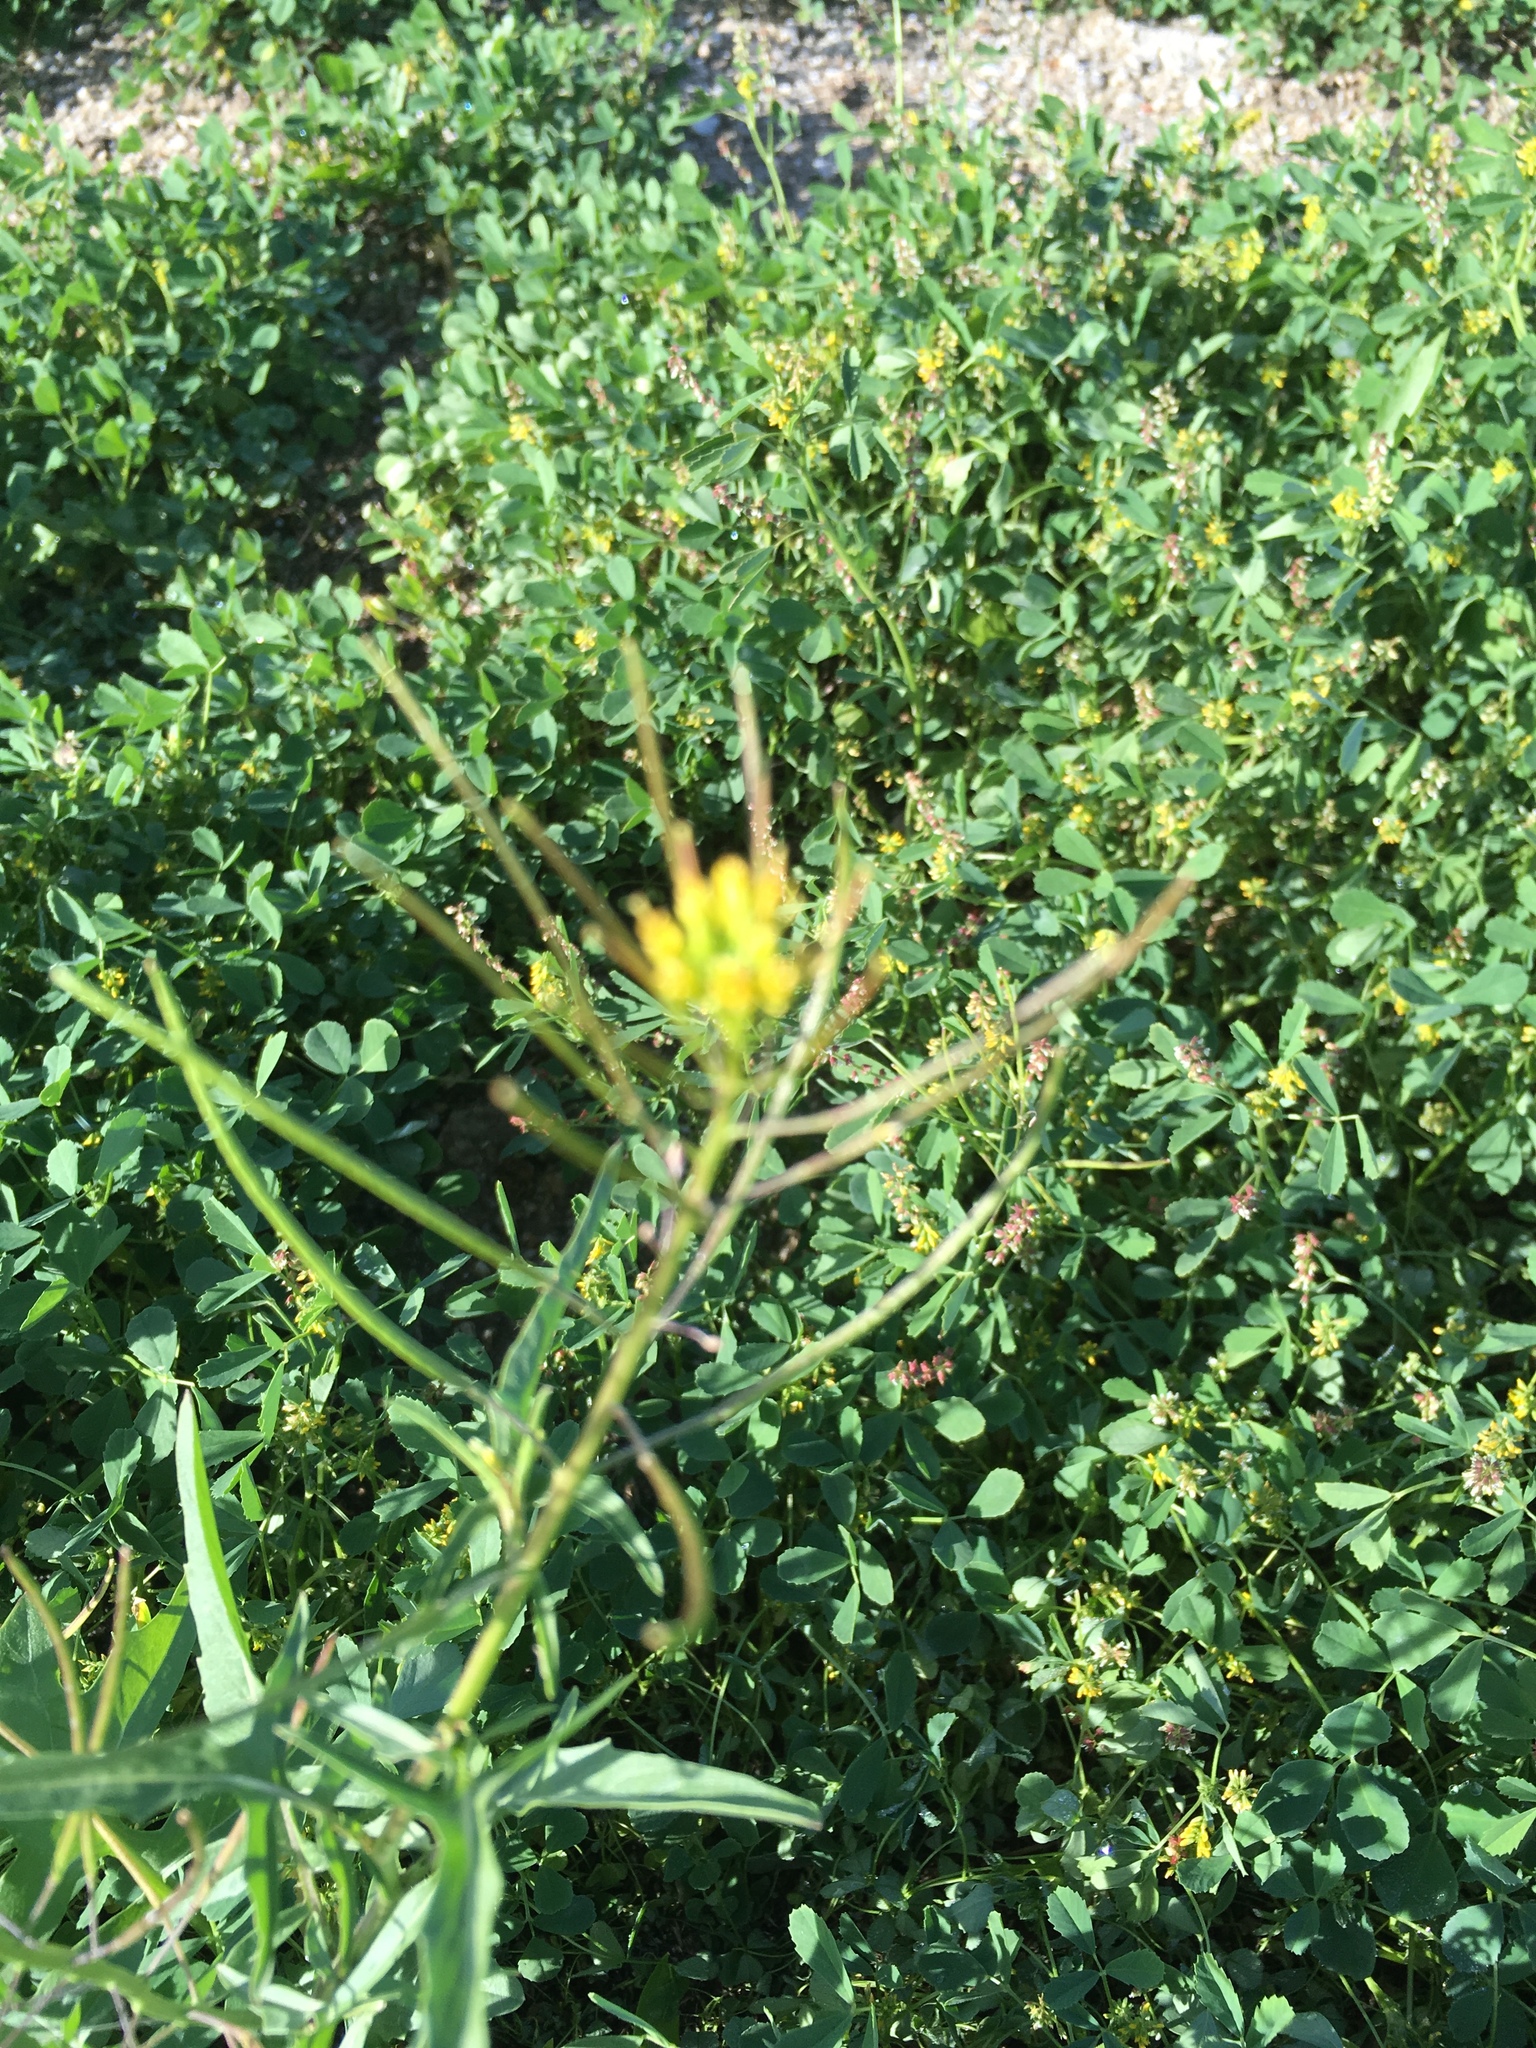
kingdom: Plantae
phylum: Tracheophyta
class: Magnoliopsida
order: Brassicales
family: Brassicaceae
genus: Sisymbrium
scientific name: Sisymbrium irio
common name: London rocket
